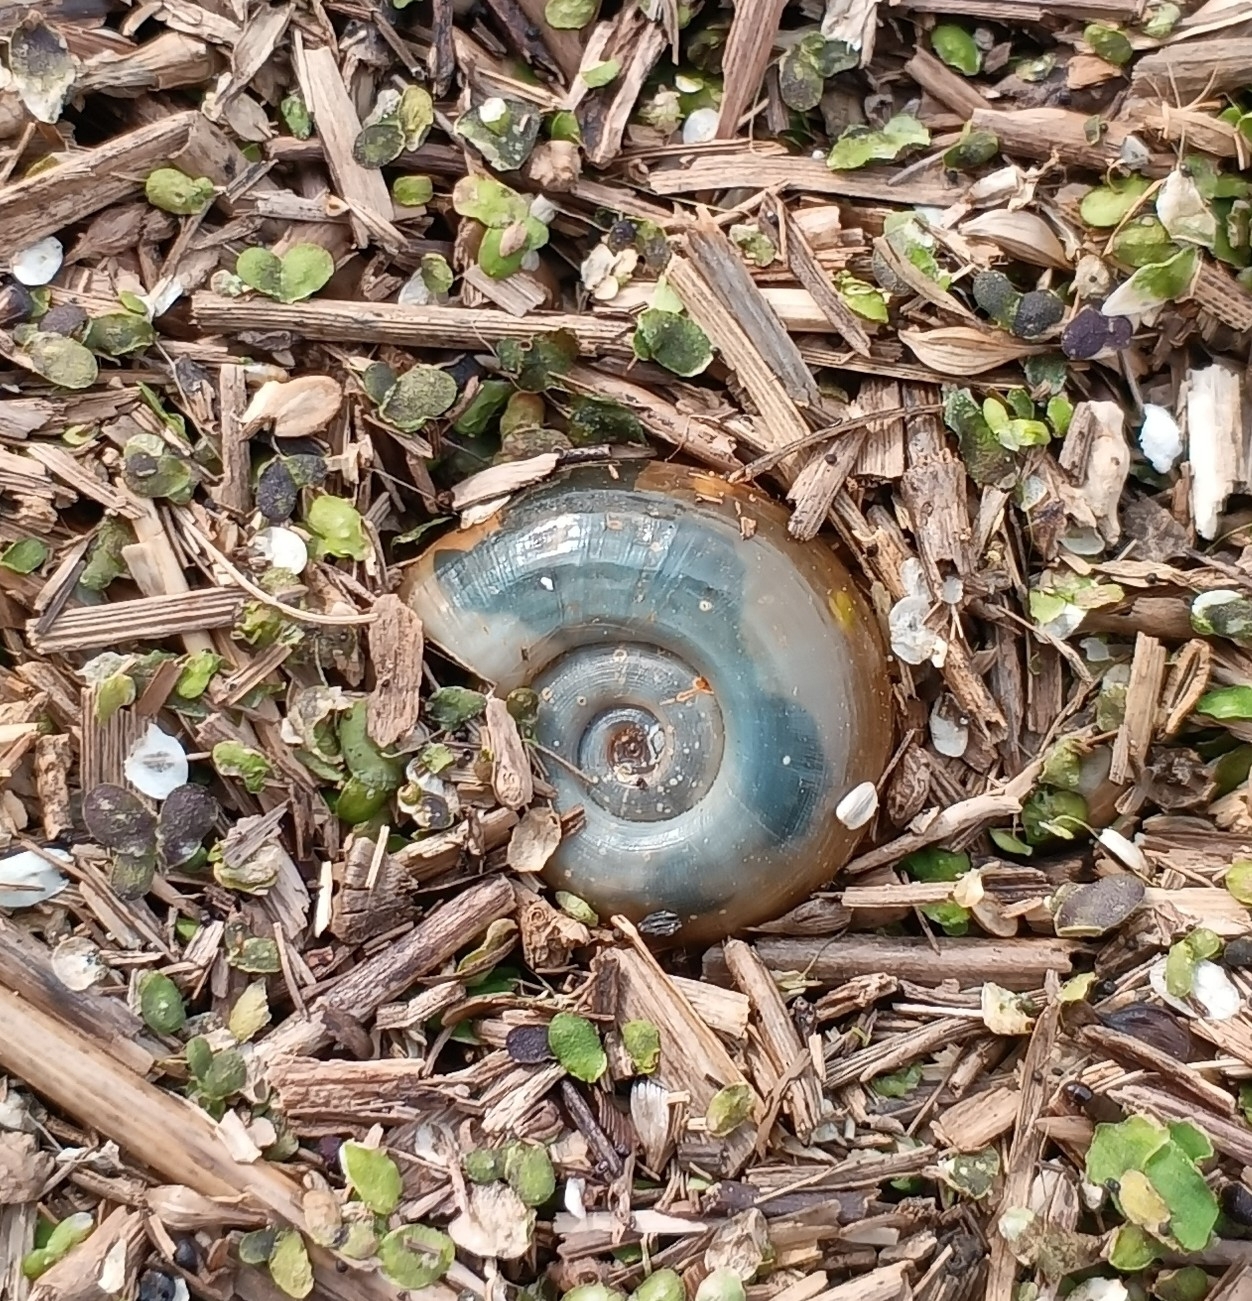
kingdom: Animalia
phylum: Mollusca
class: Gastropoda
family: Planorbidae
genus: Planorbarius
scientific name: Planorbarius corneus
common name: Great ramshorn
